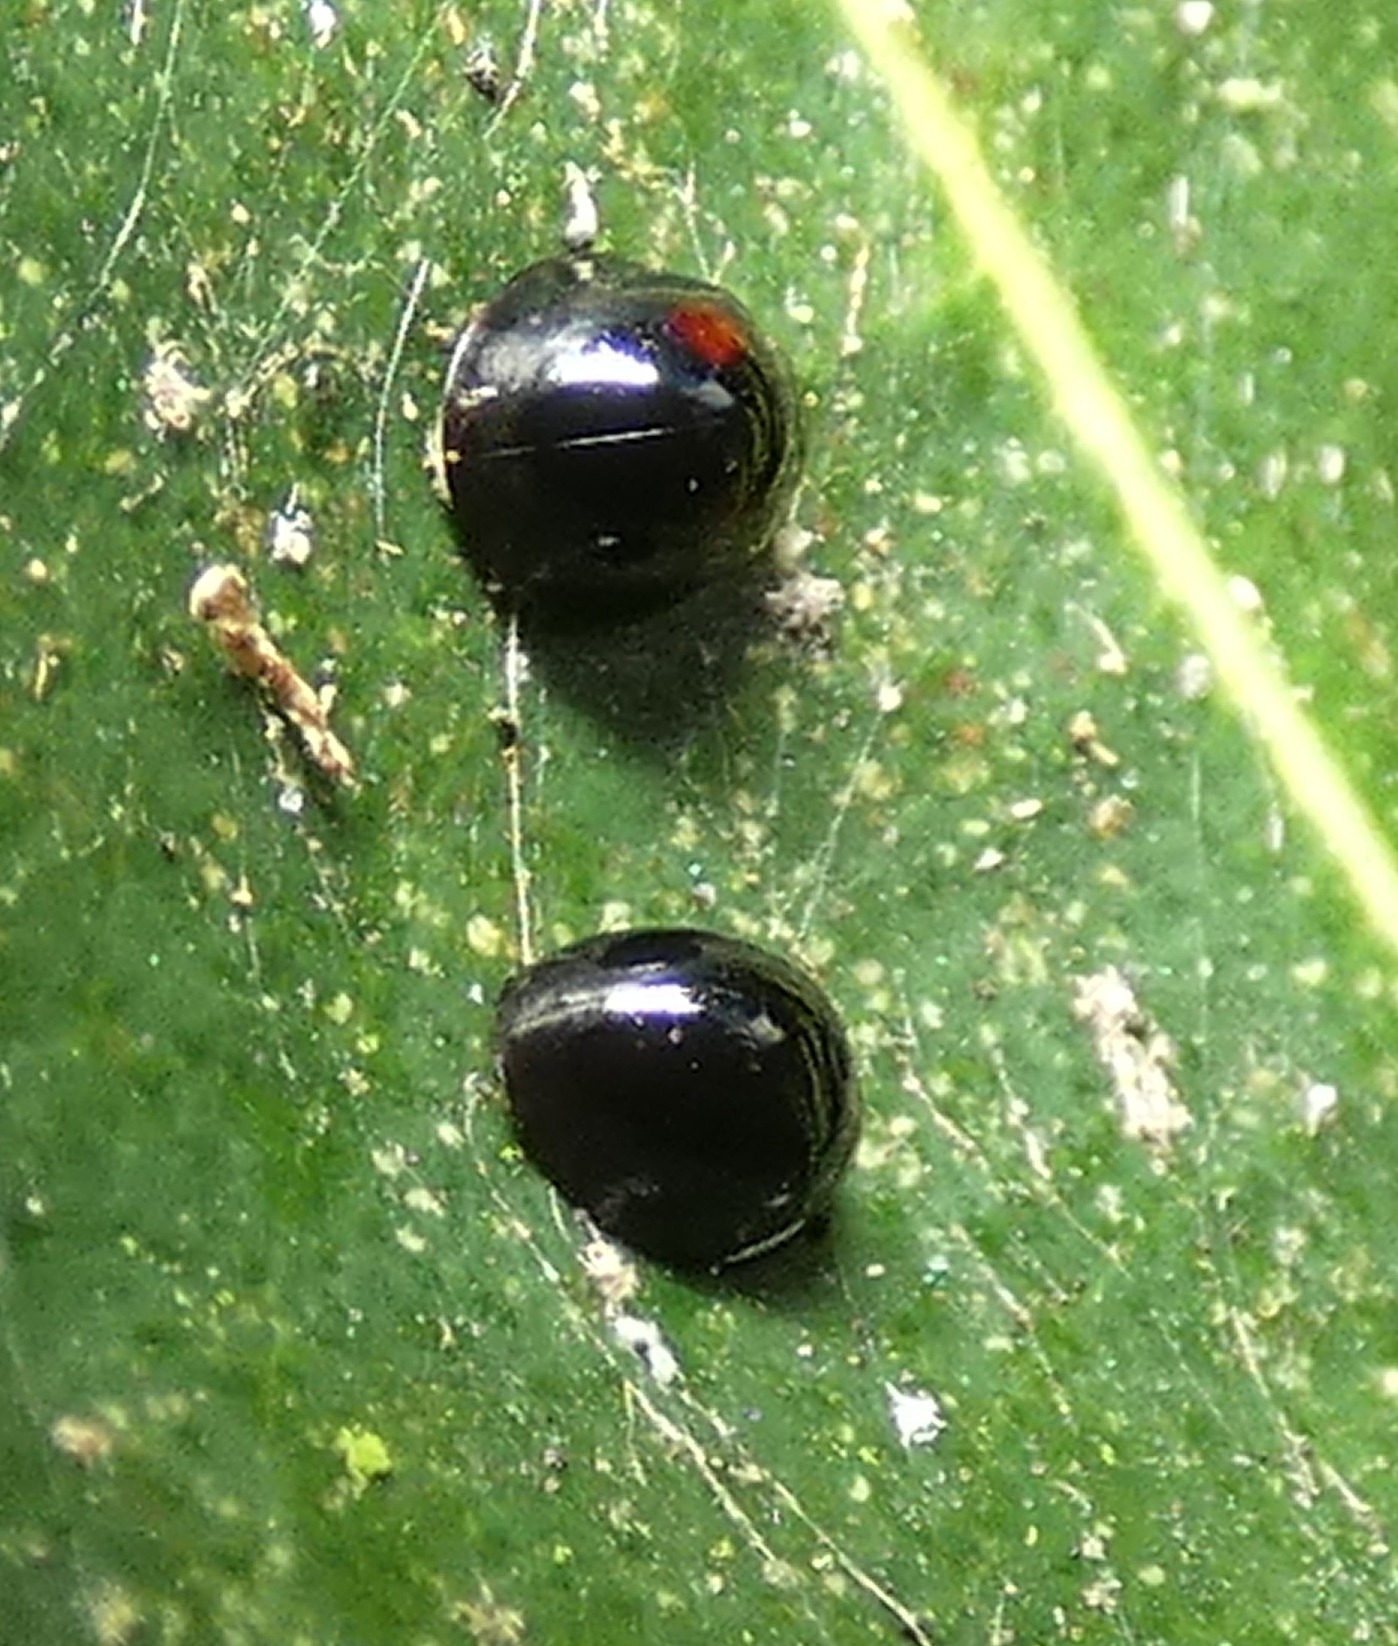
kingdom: Animalia
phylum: Arthropoda
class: Insecta
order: Coleoptera
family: Coccinellidae
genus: Chilocorus
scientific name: Chilocorus nigritus
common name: Ladybird beetle
